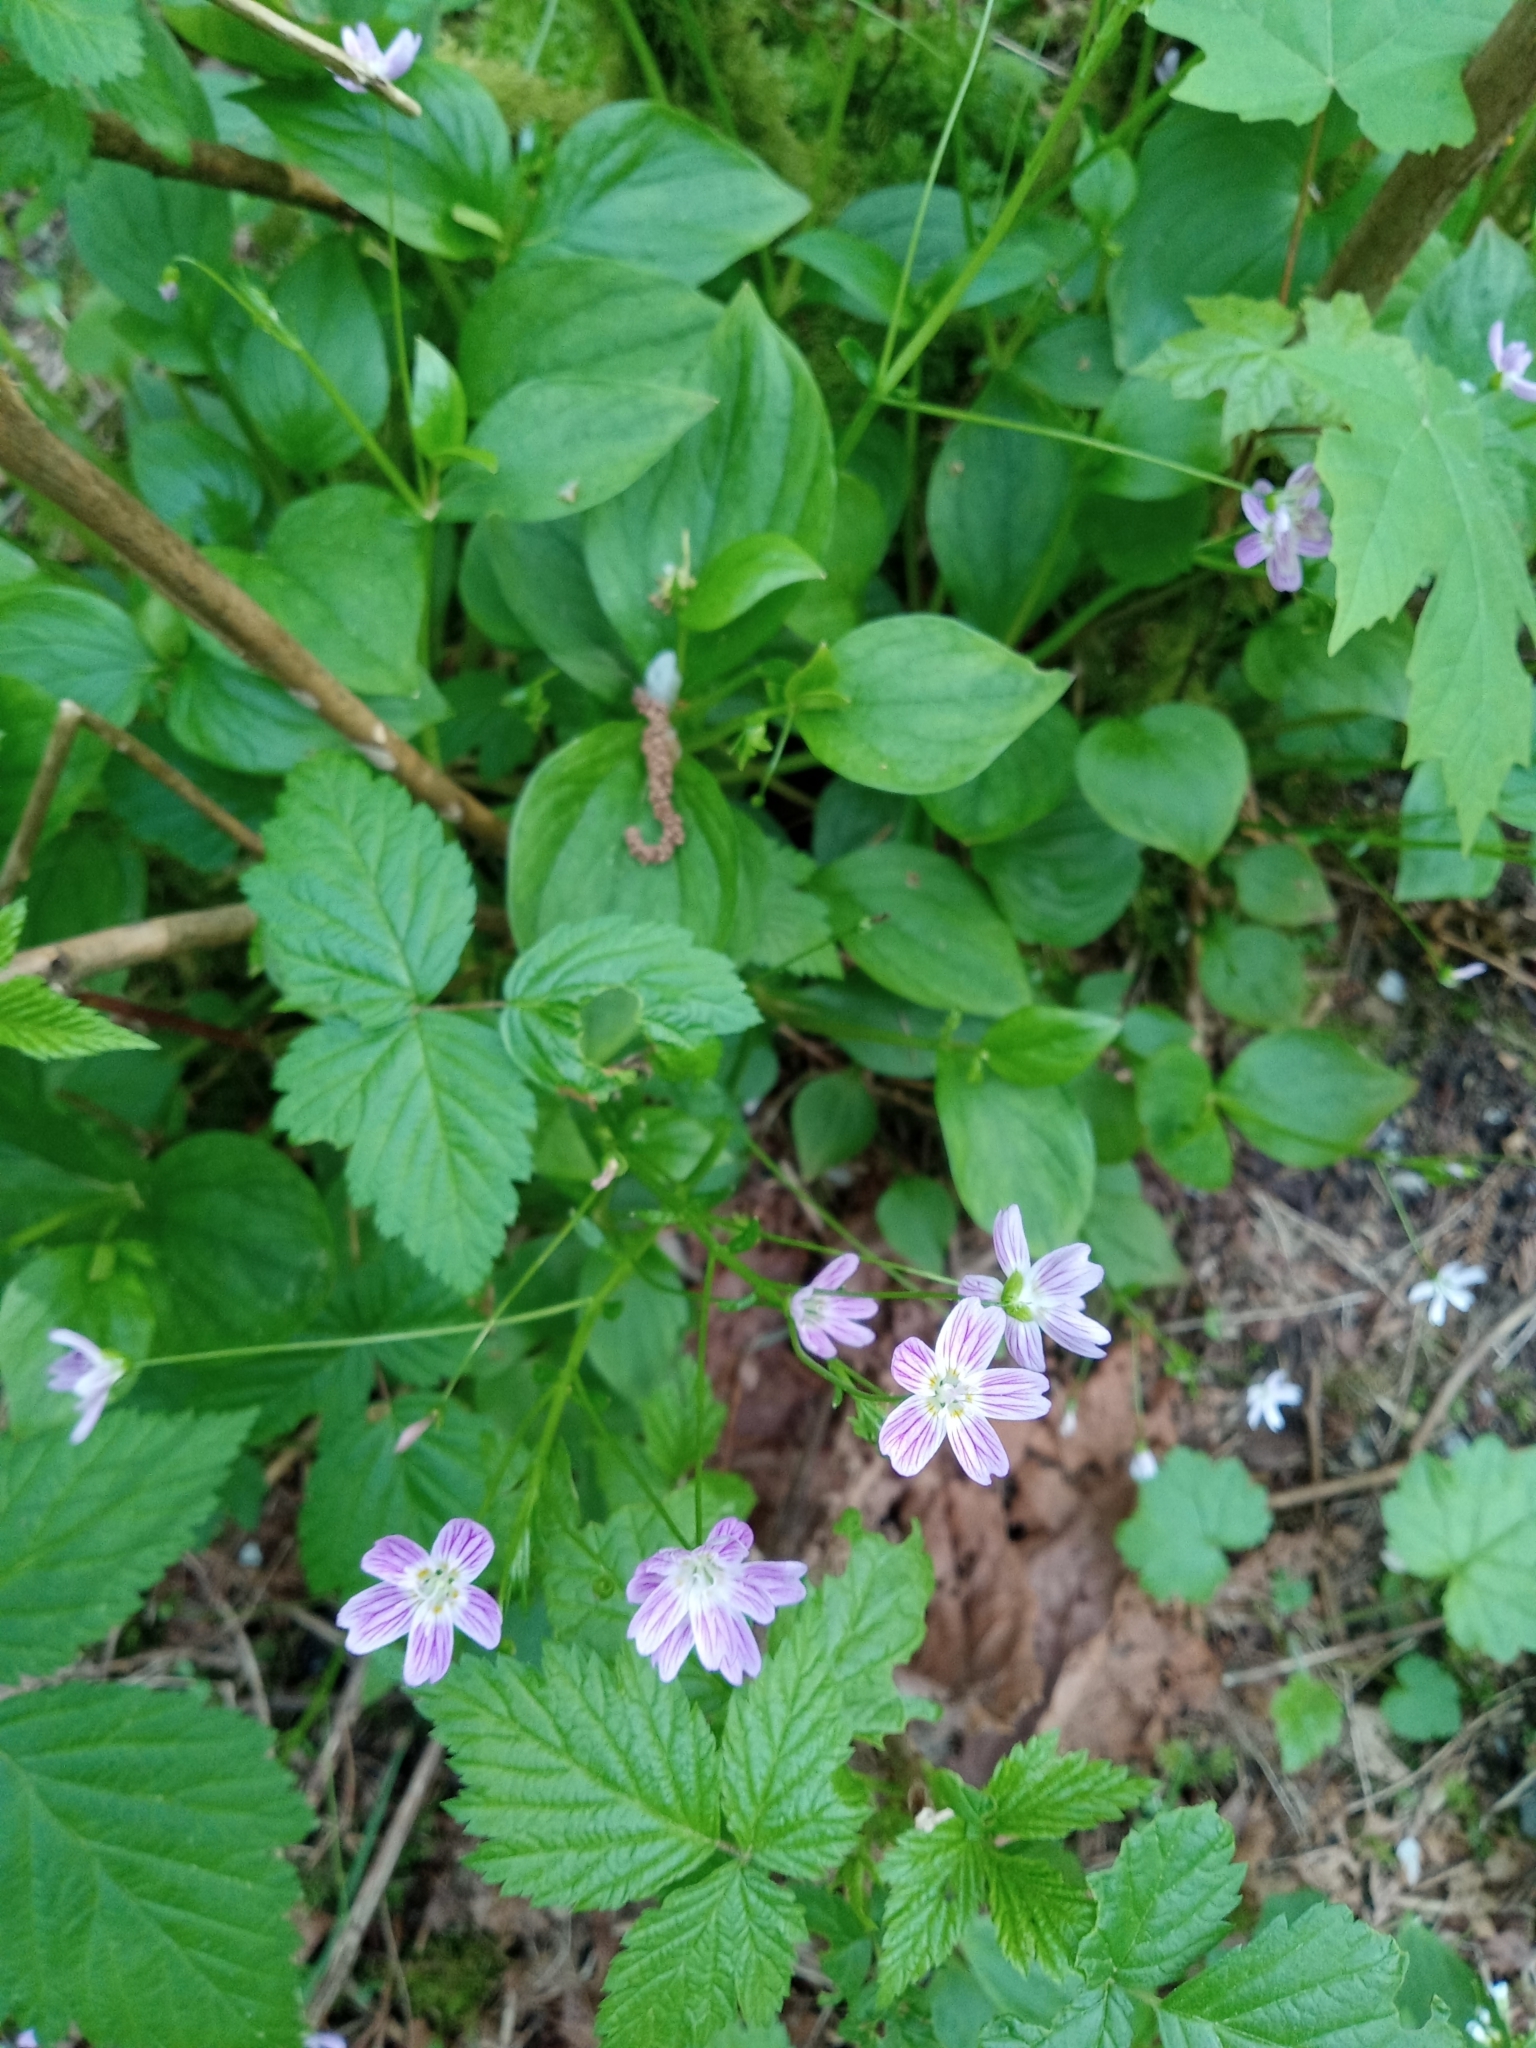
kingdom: Plantae
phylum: Tracheophyta
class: Magnoliopsida
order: Caryophyllales
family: Montiaceae
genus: Claytonia
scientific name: Claytonia sibirica
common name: Pink purslane
